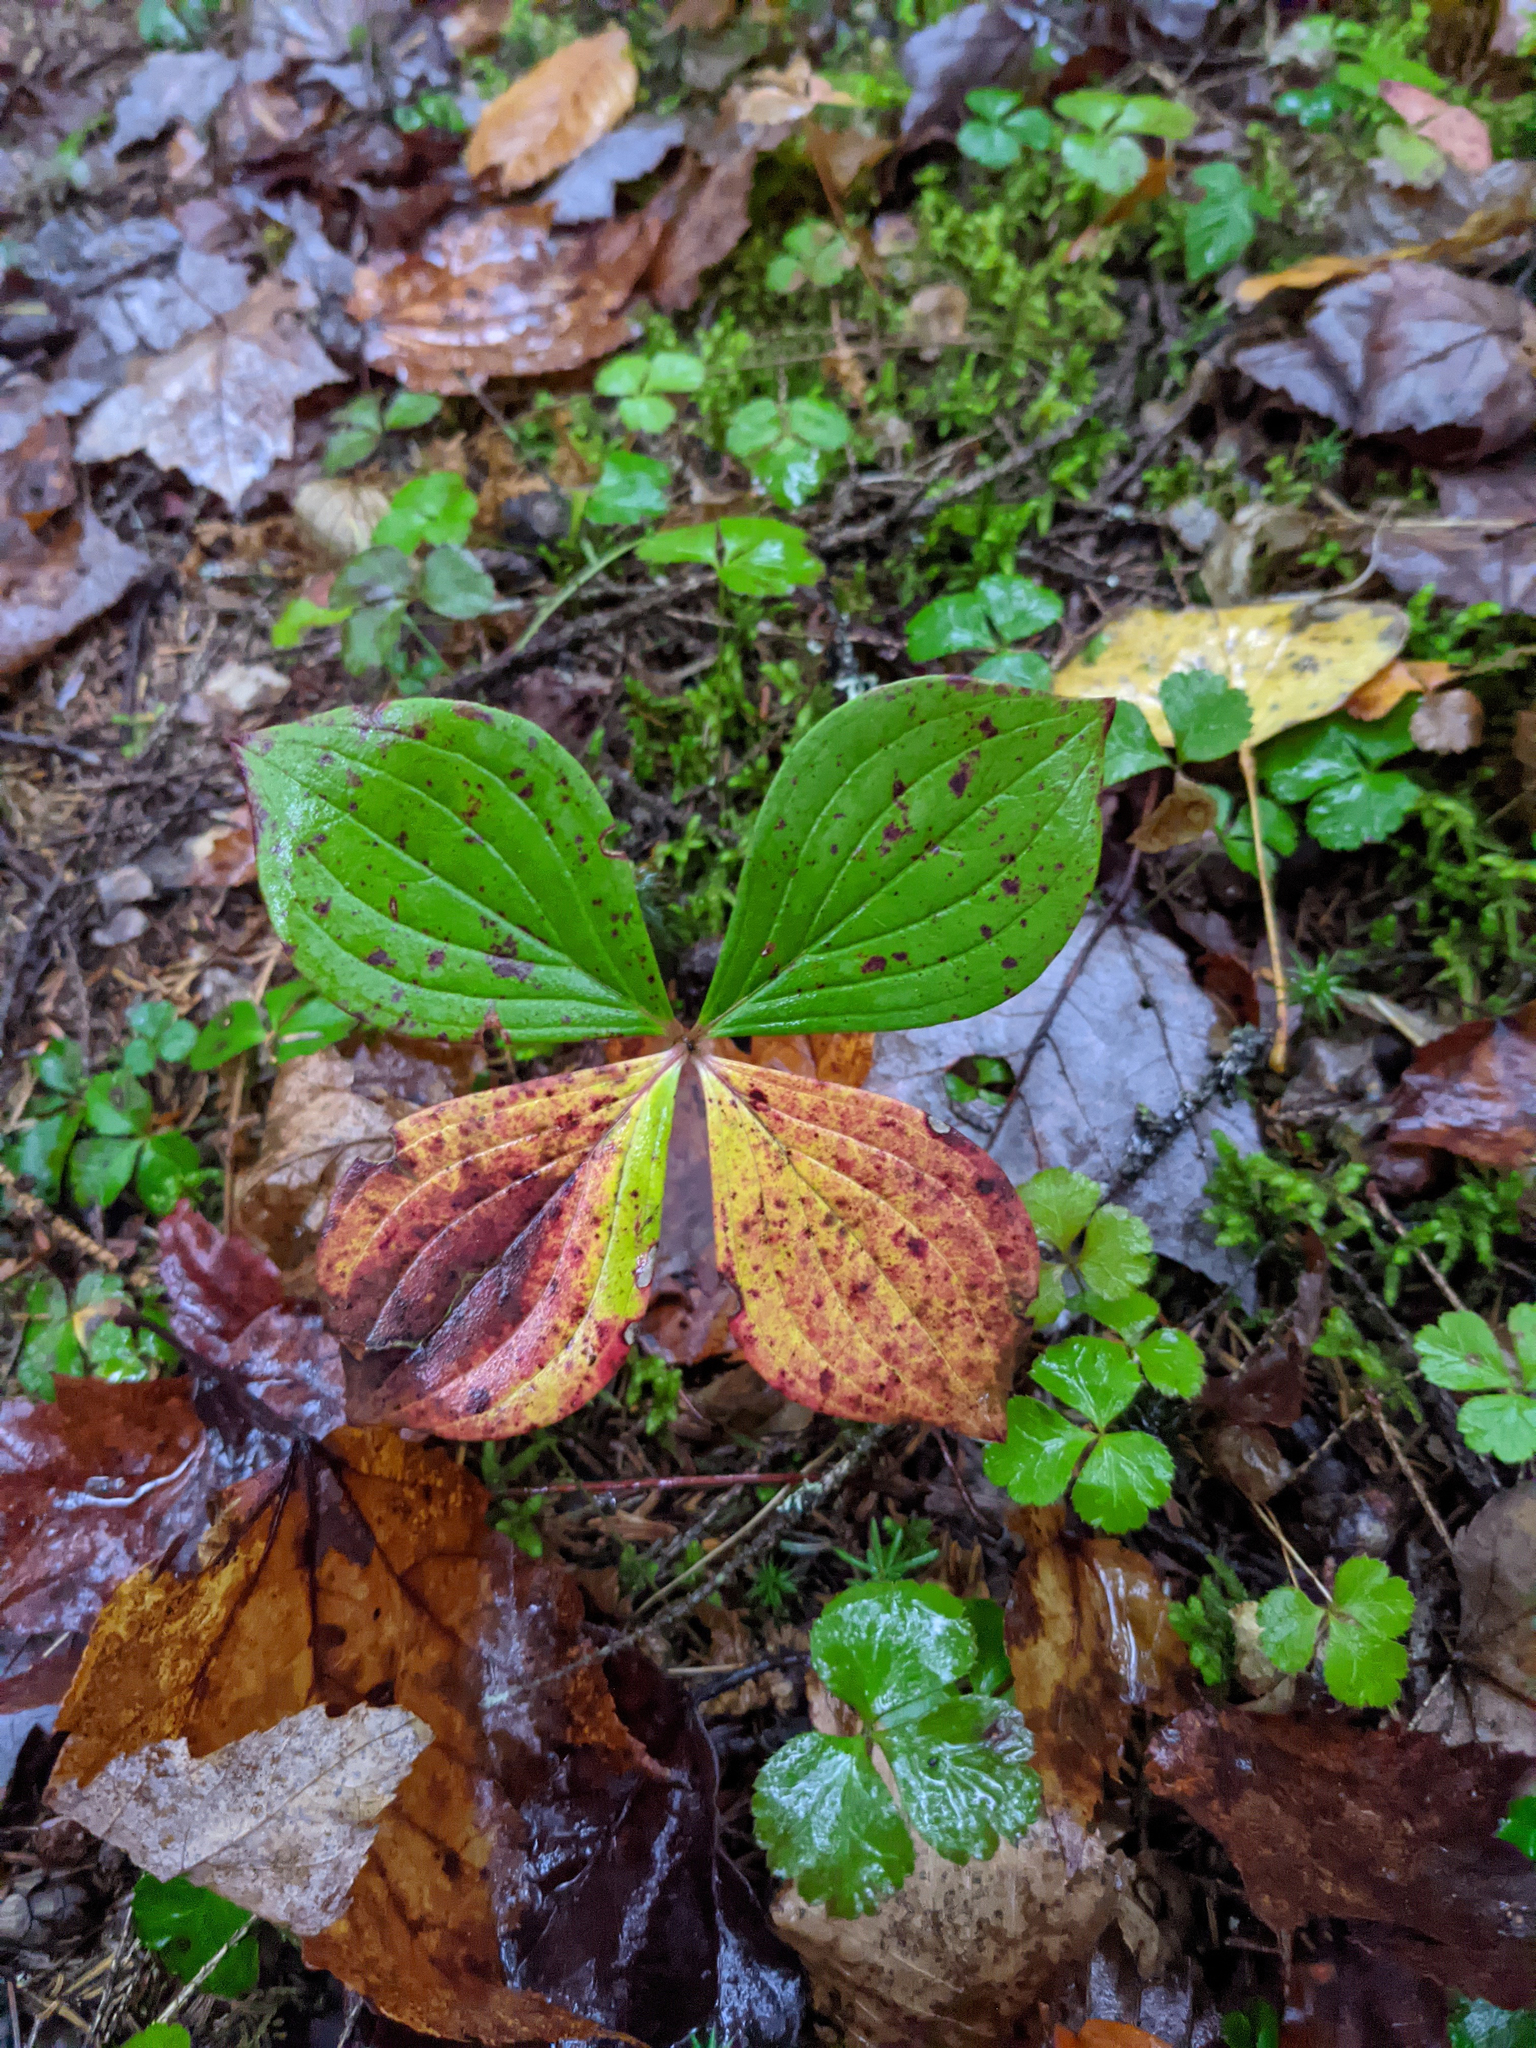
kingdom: Plantae
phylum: Tracheophyta
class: Magnoliopsida
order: Cornales
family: Cornaceae
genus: Cornus
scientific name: Cornus canadensis
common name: Creeping dogwood
